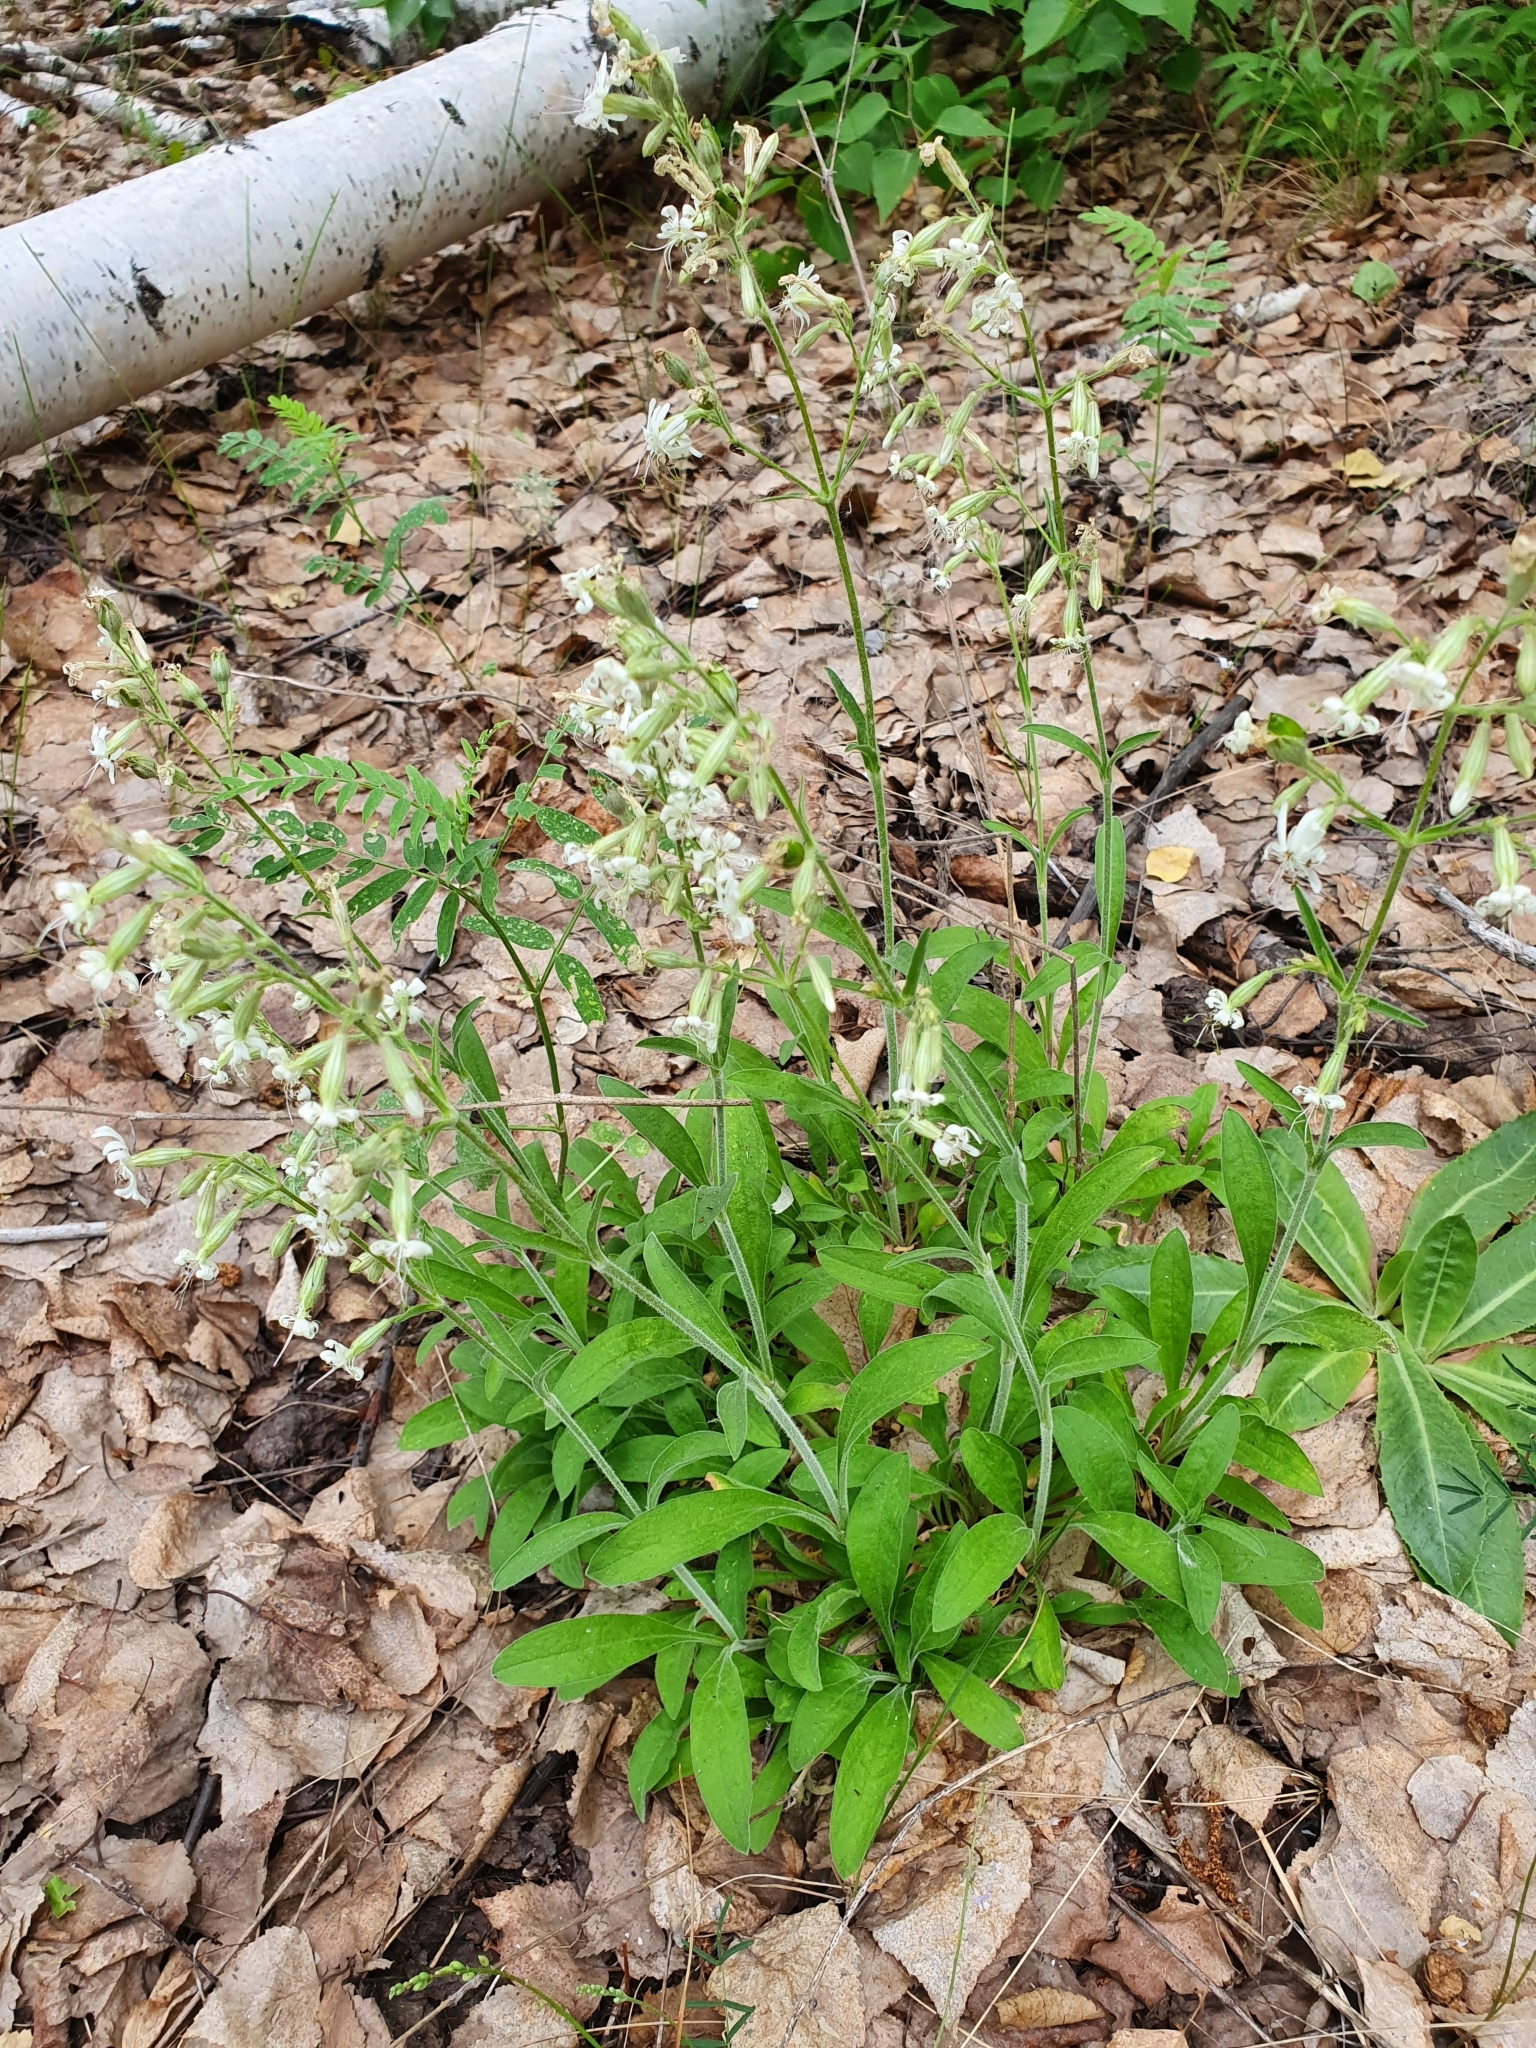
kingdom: Plantae
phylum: Tracheophyta
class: Magnoliopsida
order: Caryophyllales
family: Caryophyllaceae
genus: Silene
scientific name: Silene nutans
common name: Nottingham catchfly
